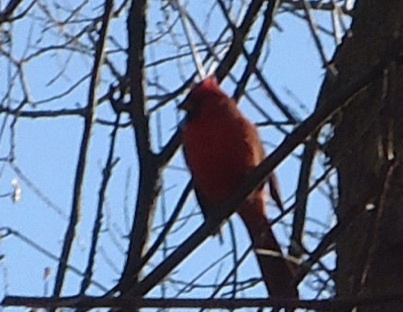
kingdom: Animalia
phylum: Chordata
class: Aves
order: Passeriformes
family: Cardinalidae
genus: Cardinalis
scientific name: Cardinalis cardinalis
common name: Northern cardinal
